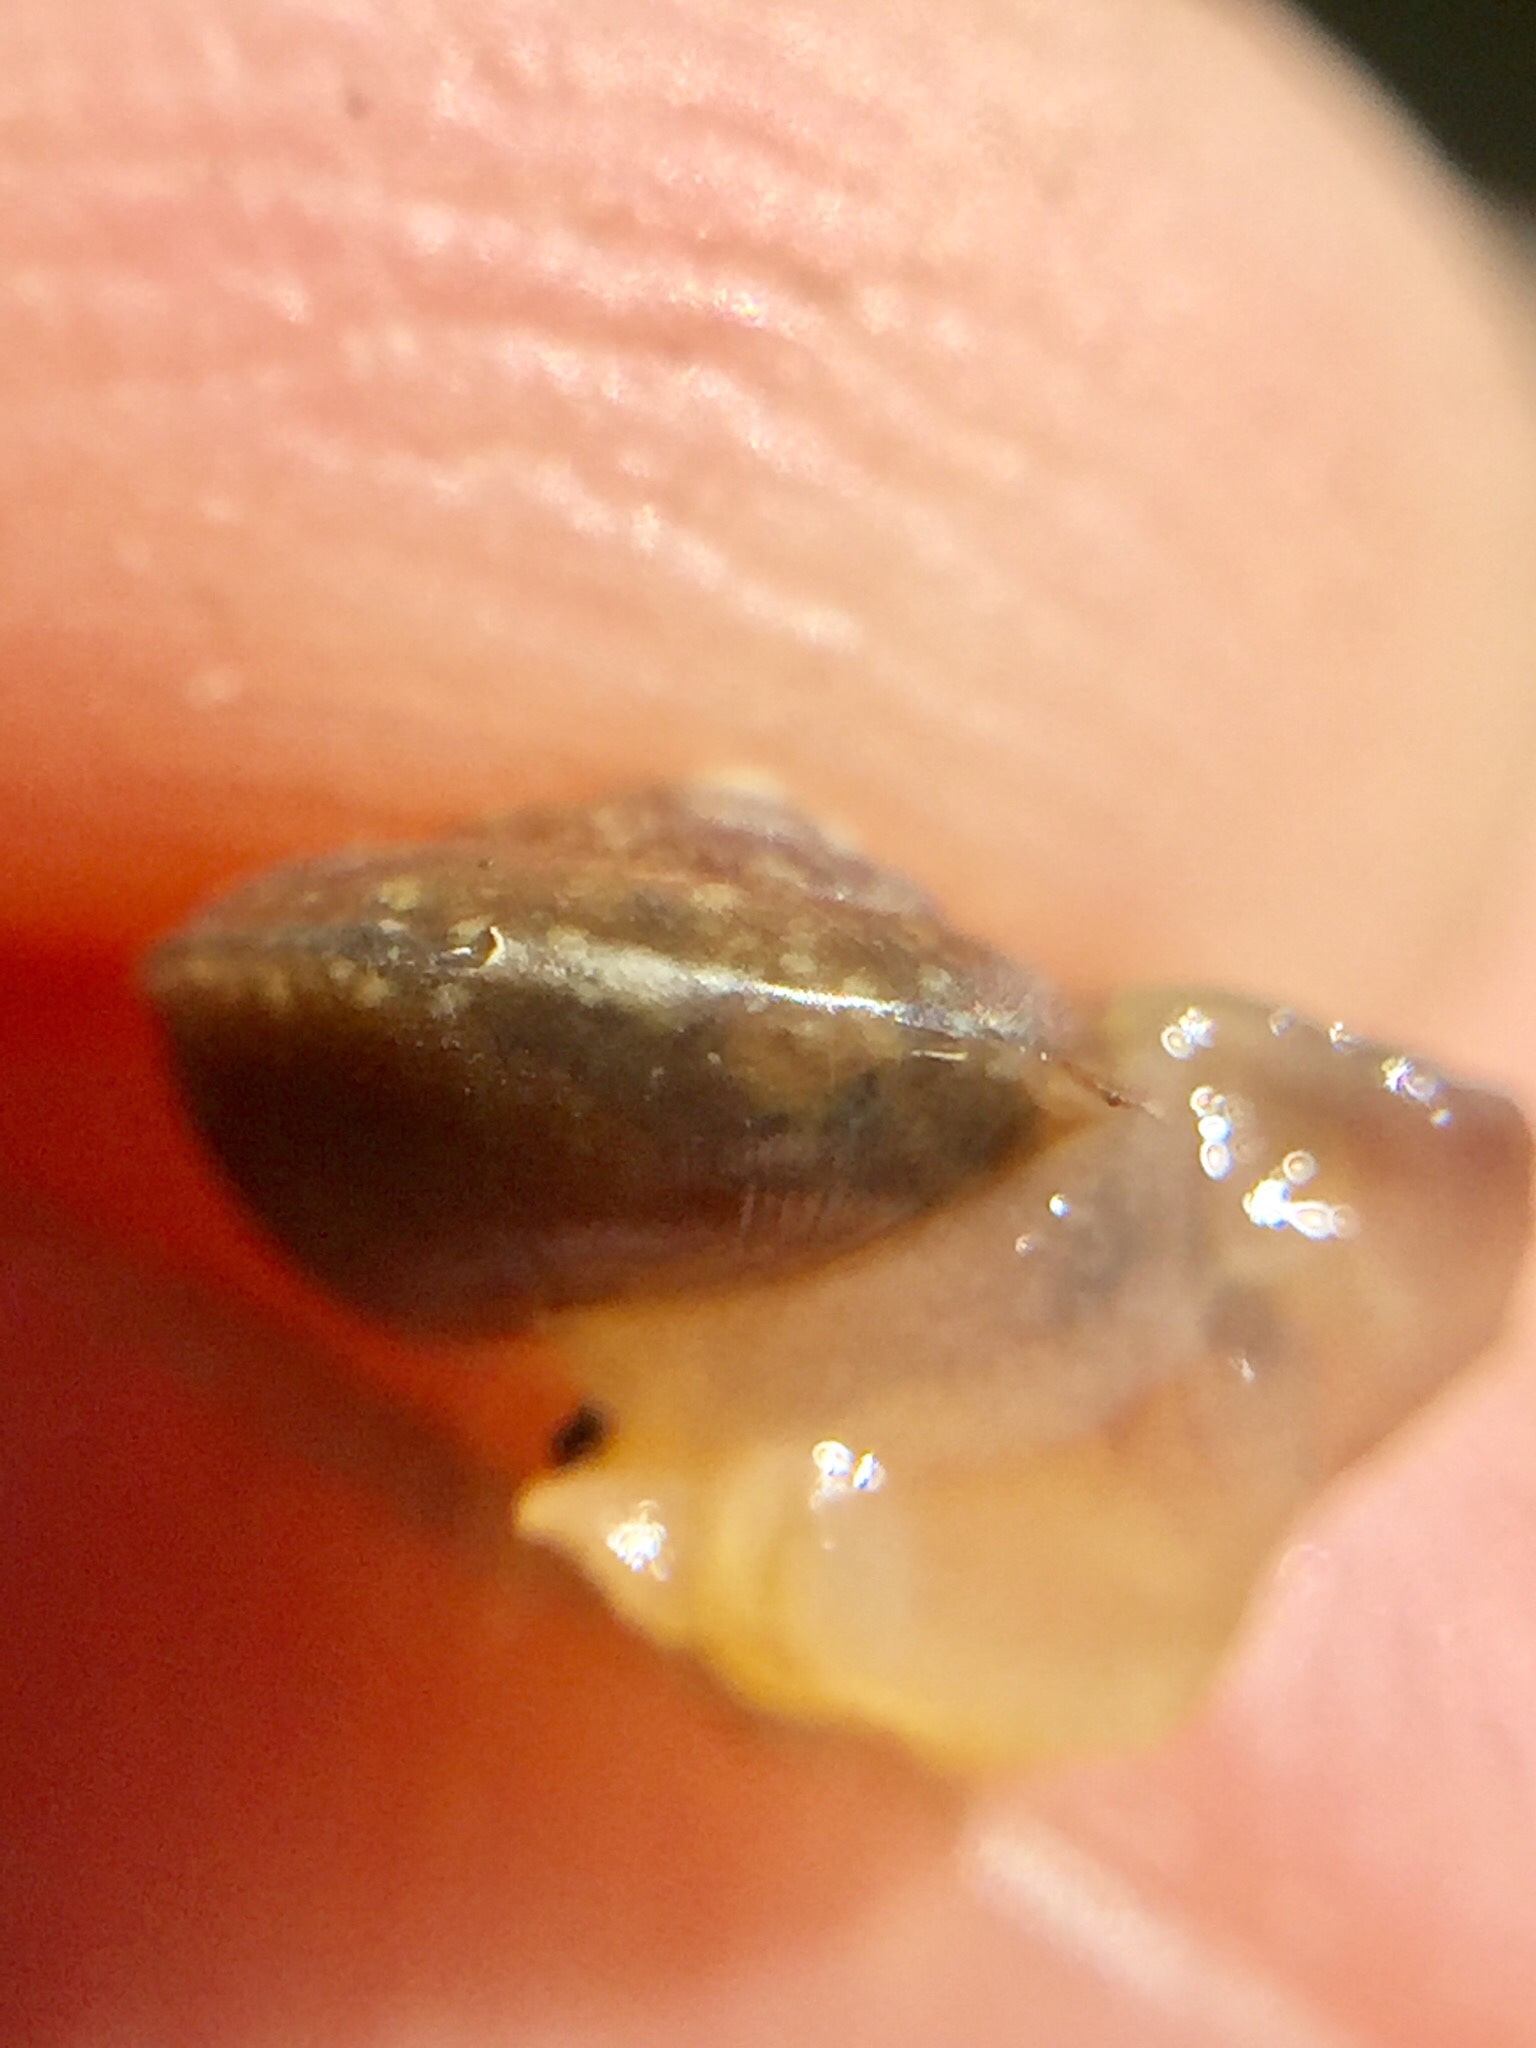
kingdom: Animalia
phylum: Mollusca
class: Gastropoda
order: Stylommatophora
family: Hygromiidae
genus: Hygromia
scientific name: Hygromia cinctella
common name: Girdled snail
